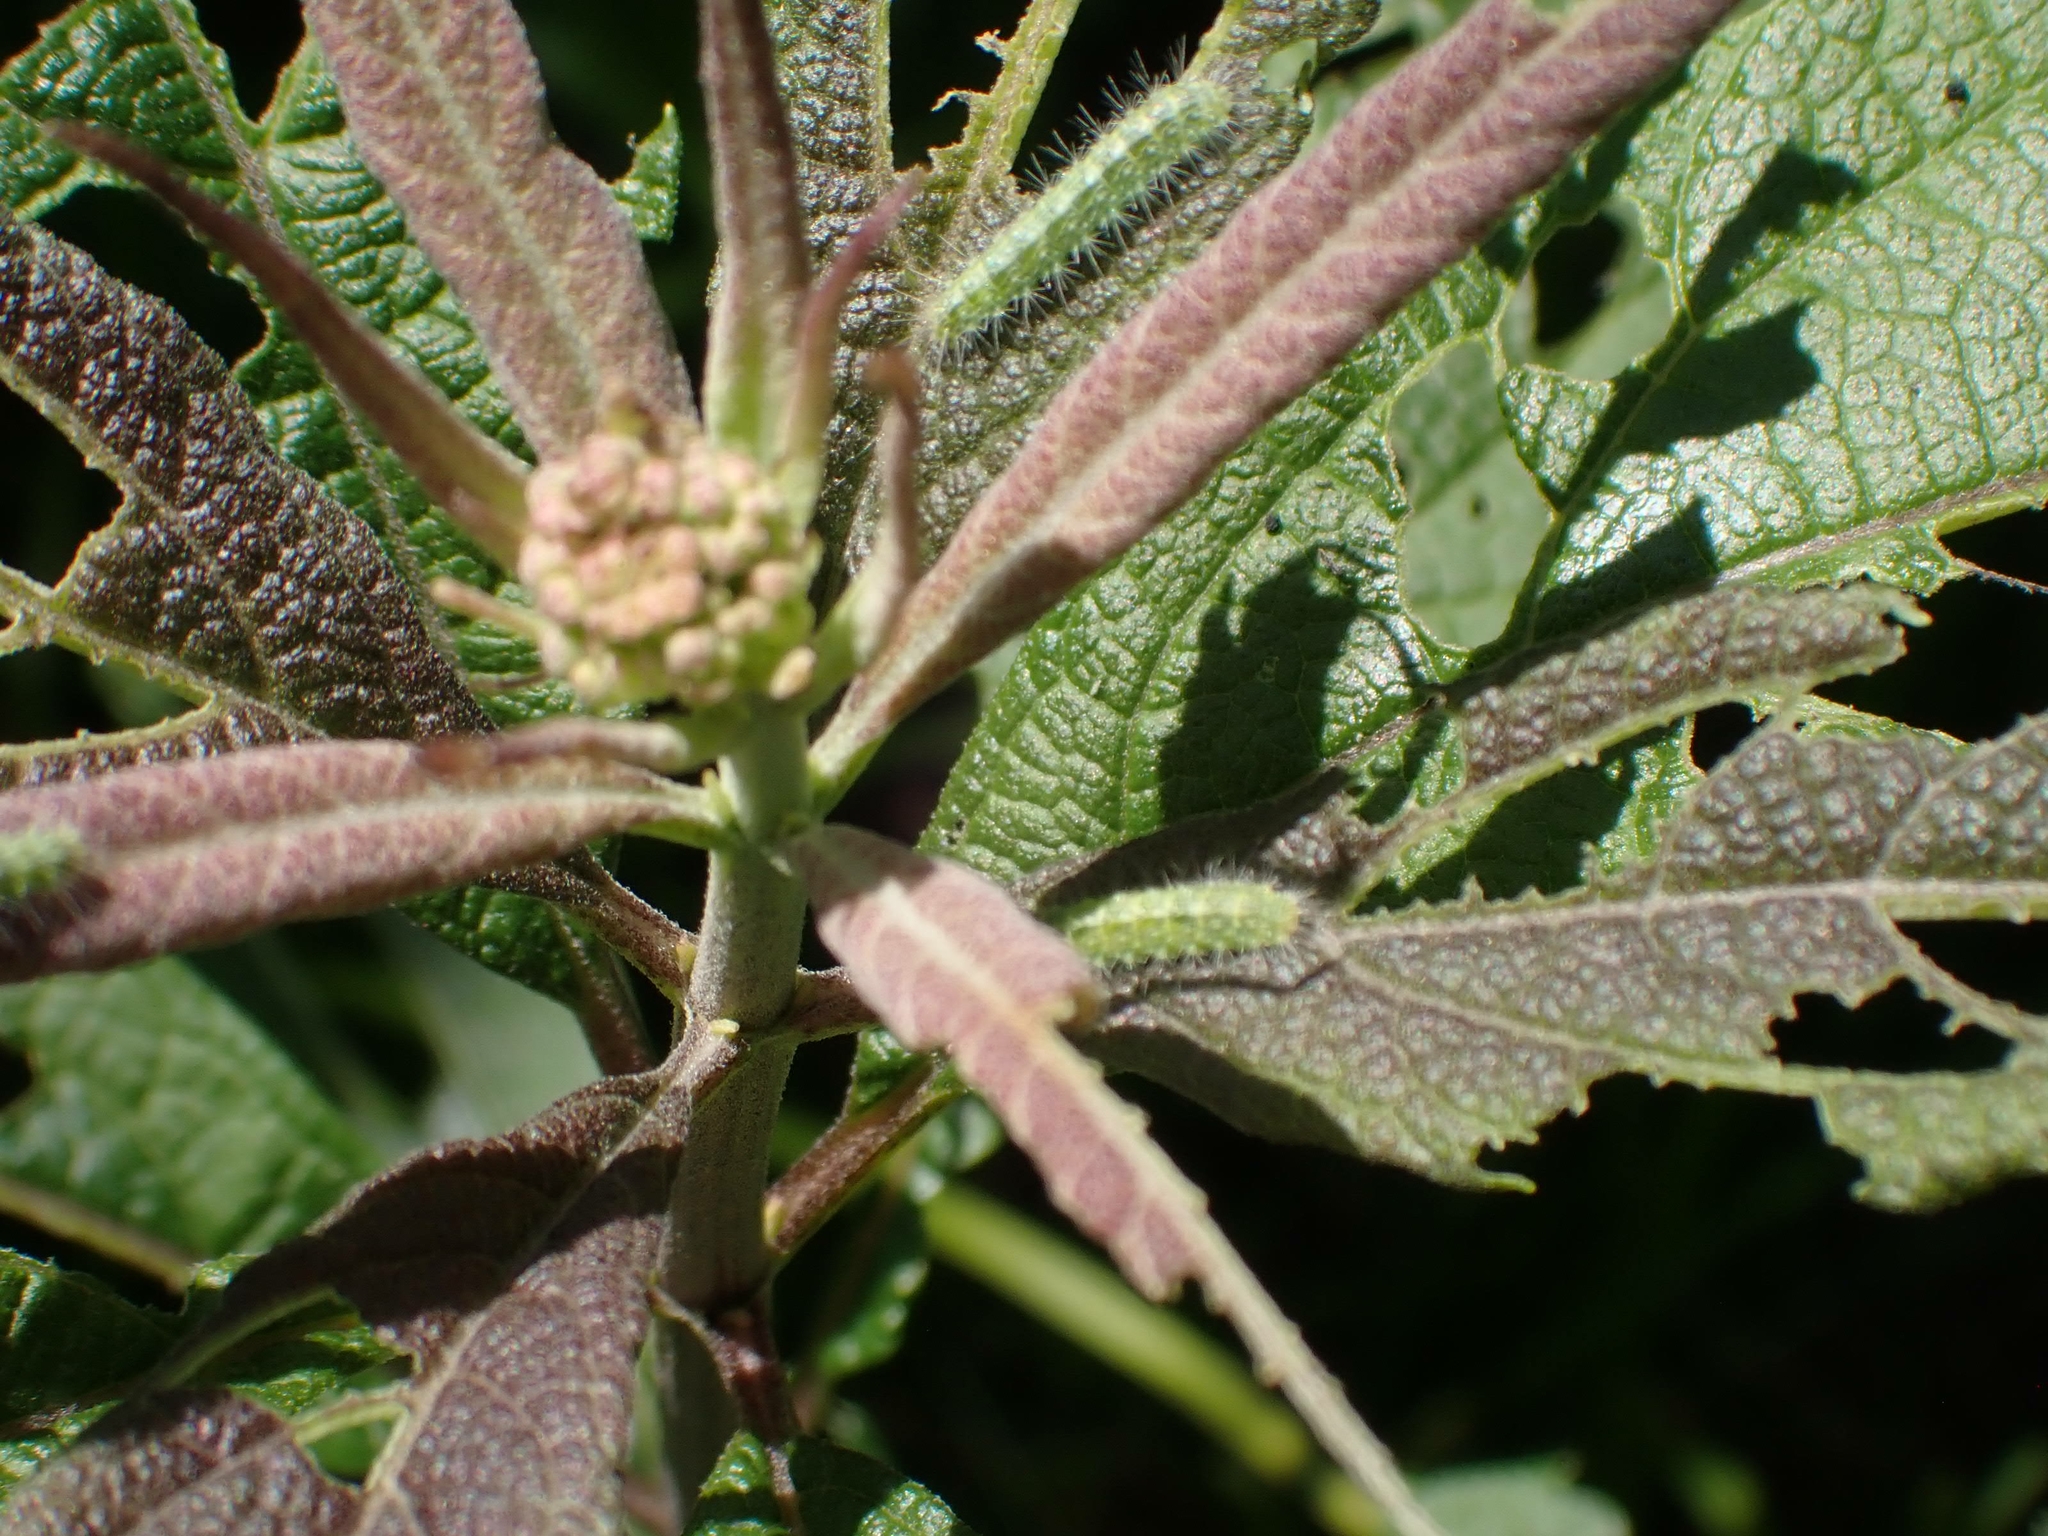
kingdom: Plantae
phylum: Tracheophyta
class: Magnoliopsida
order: Asterales
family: Asteraceae
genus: Eutrochium
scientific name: Eutrochium maculatum
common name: Spotted joe pye weed
